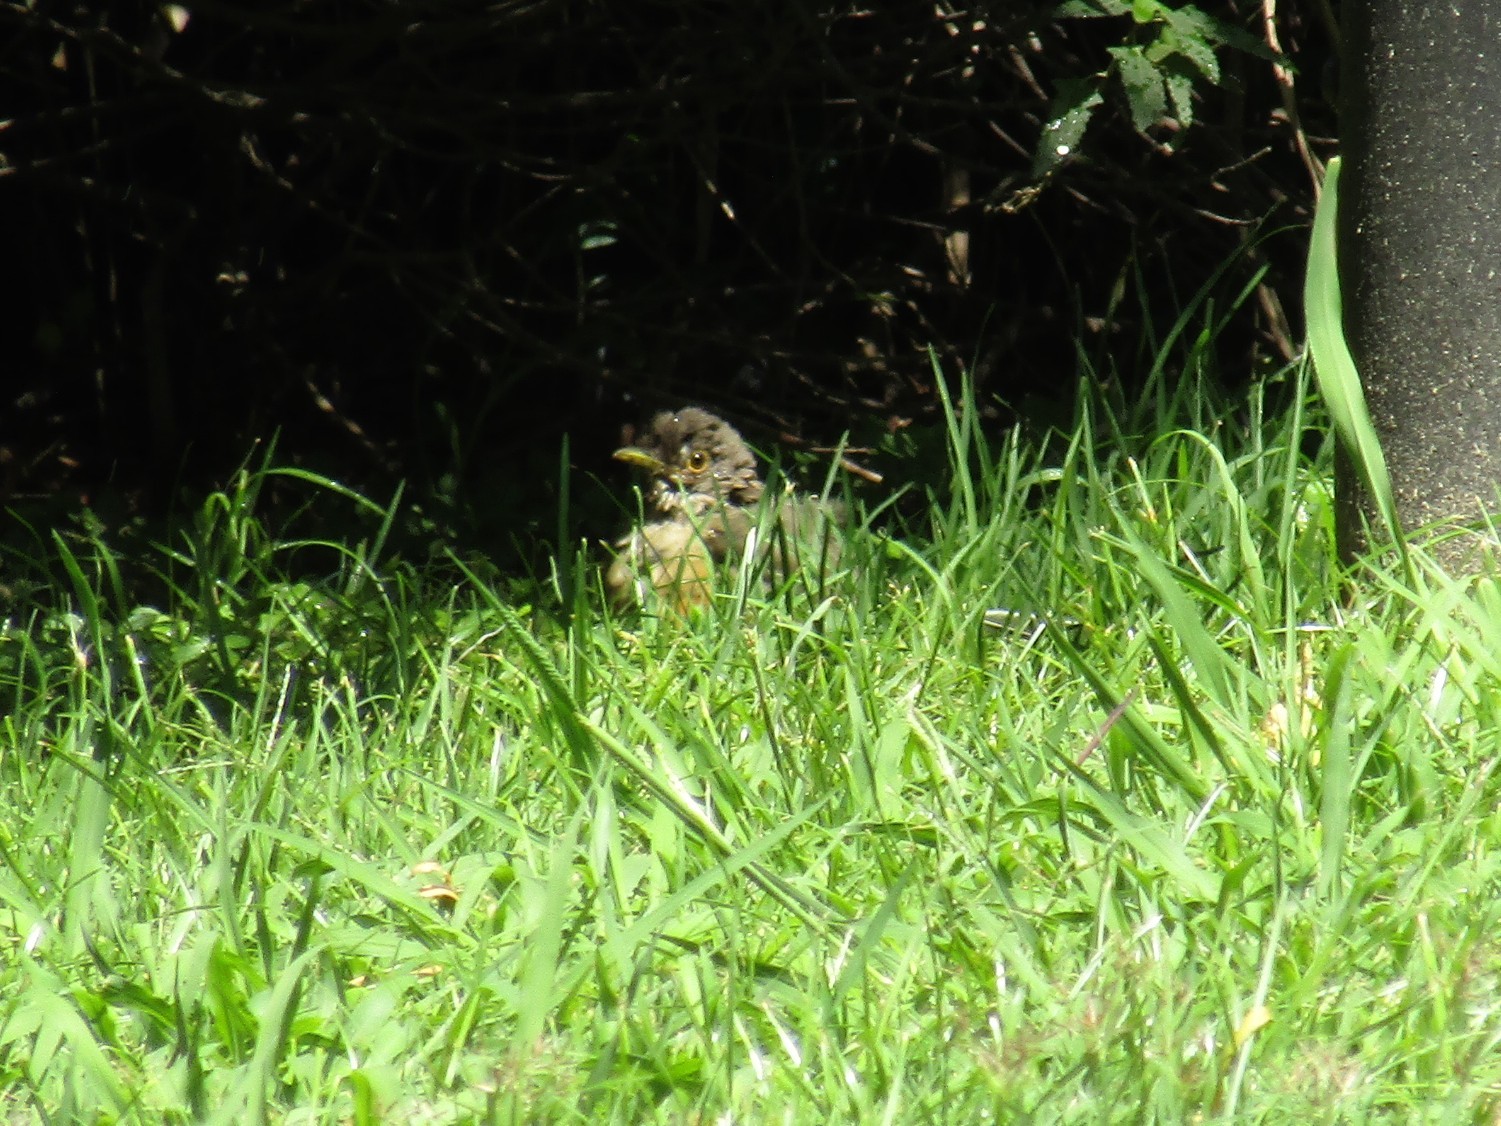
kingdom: Animalia
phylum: Chordata
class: Aves
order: Passeriformes
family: Turdidae
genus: Turdus
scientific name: Turdus rufiventris
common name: Rufous-bellied thrush
